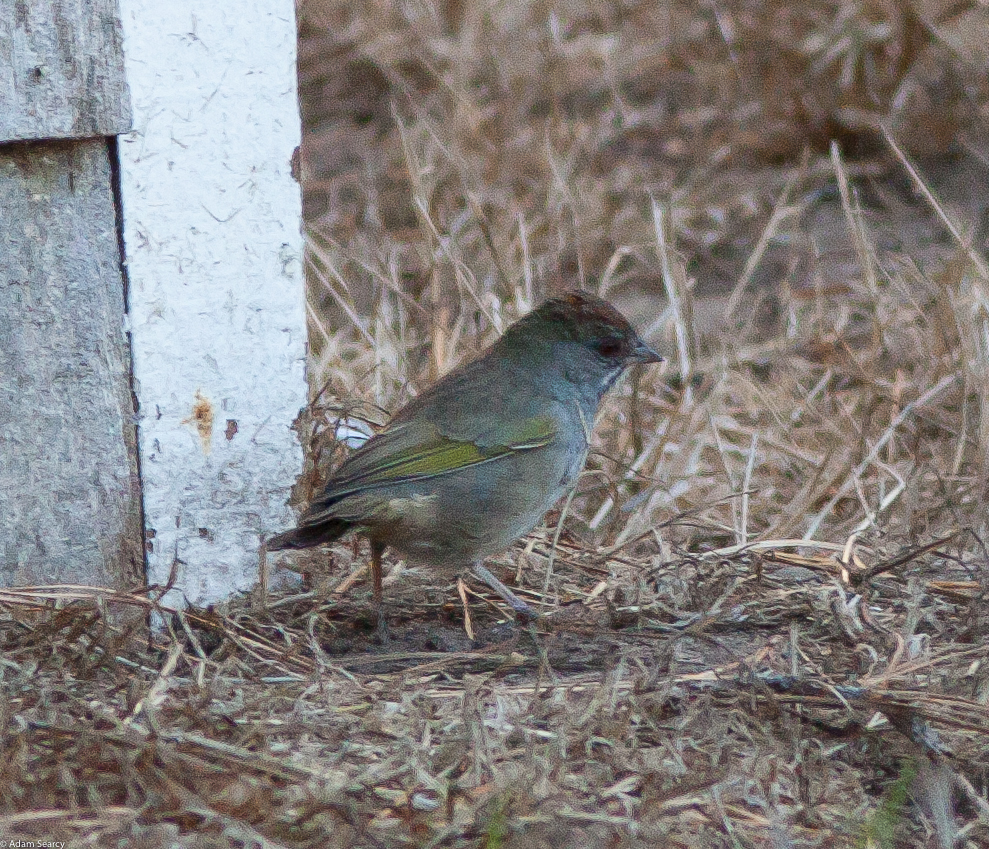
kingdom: Animalia
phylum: Chordata
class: Aves
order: Passeriformes
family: Passerellidae
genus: Pipilo
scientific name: Pipilo chlorurus
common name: Green-tailed towhee
